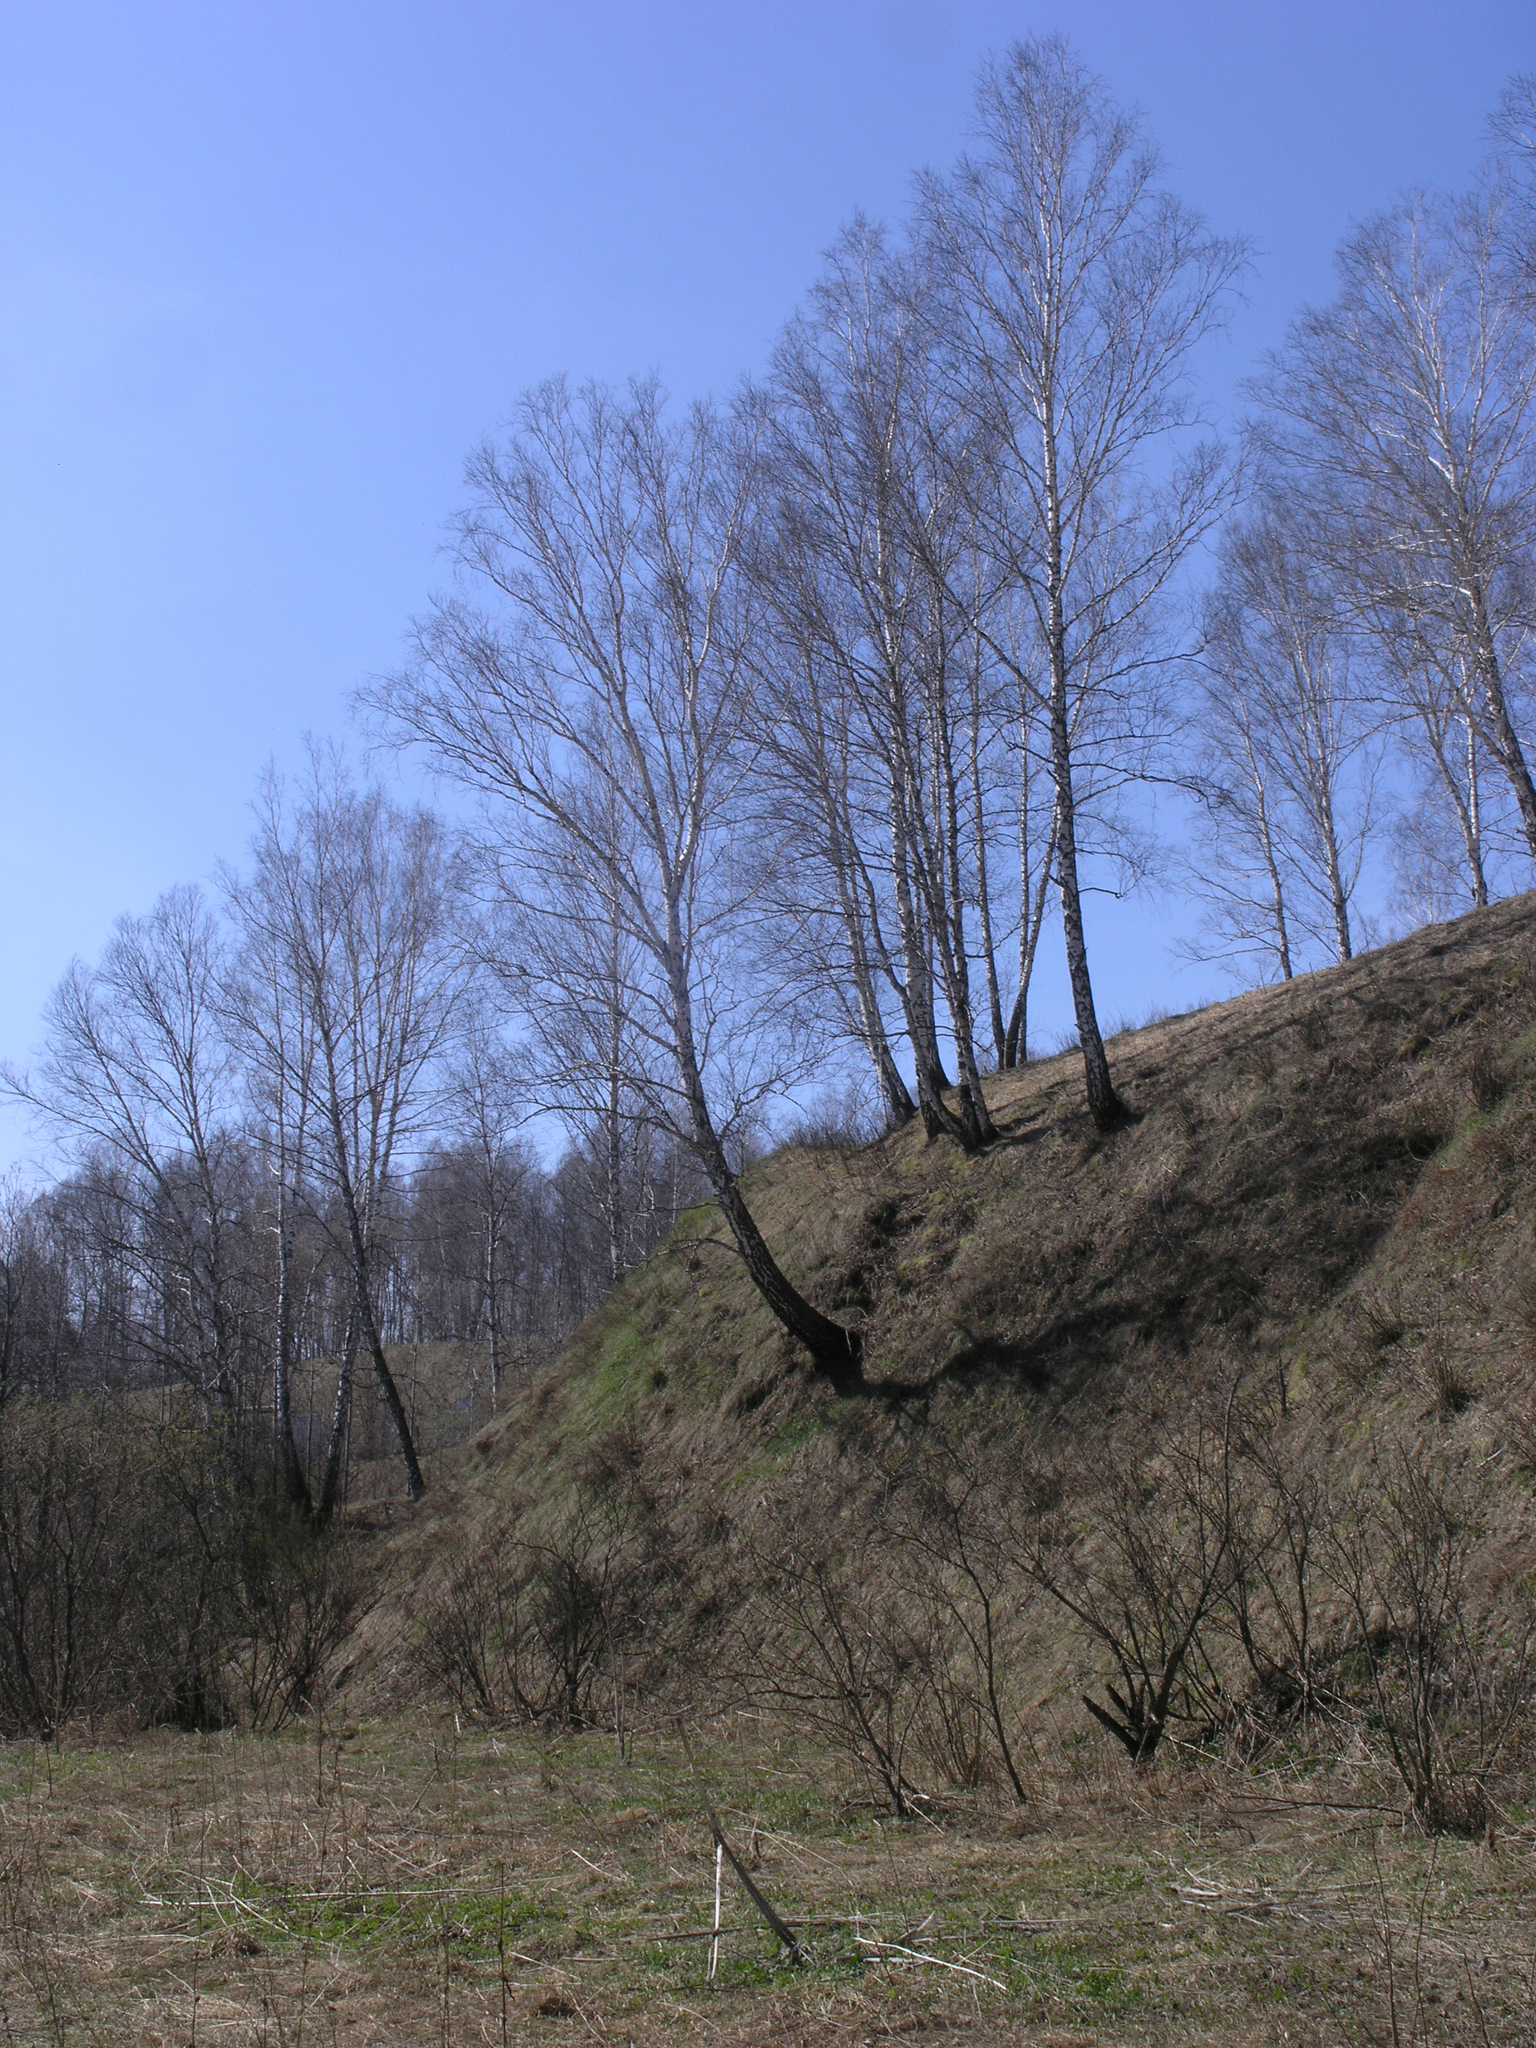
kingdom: Plantae
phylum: Tracheophyta
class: Magnoliopsida
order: Fagales
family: Betulaceae
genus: Betula
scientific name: Betula pendula
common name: Silver birch
